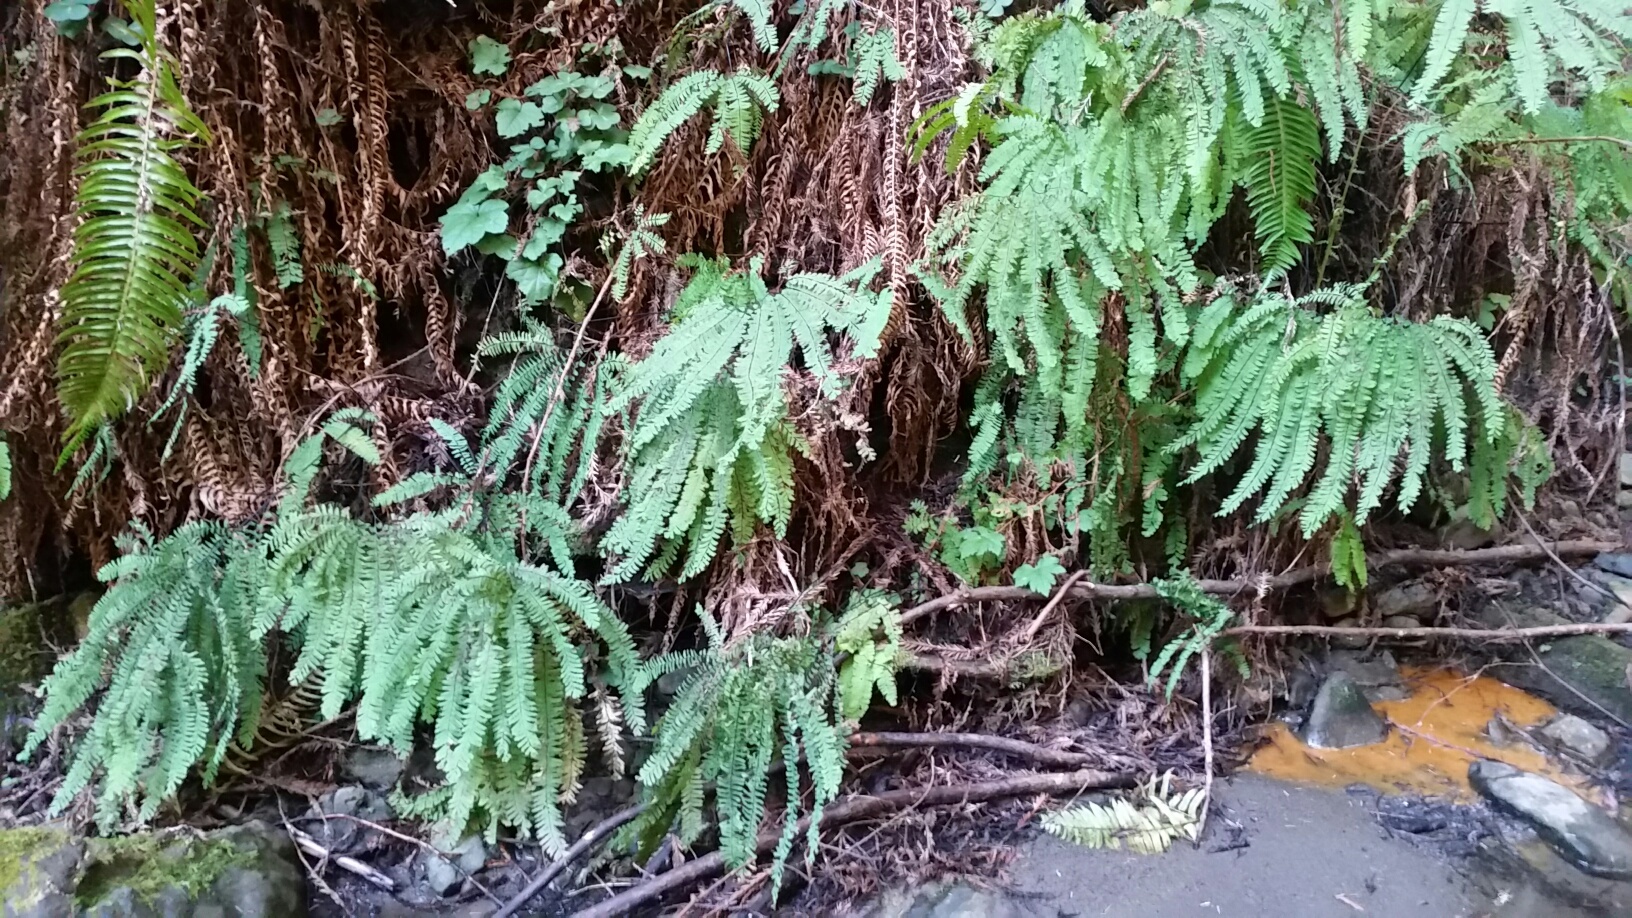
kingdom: Plantae
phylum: Tracheophyta
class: Polypodiopsida
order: Polypodiales
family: Pteridaceae
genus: Adiantum
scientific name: Adiantum aleuticum
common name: Aleutian maidenhair fern
